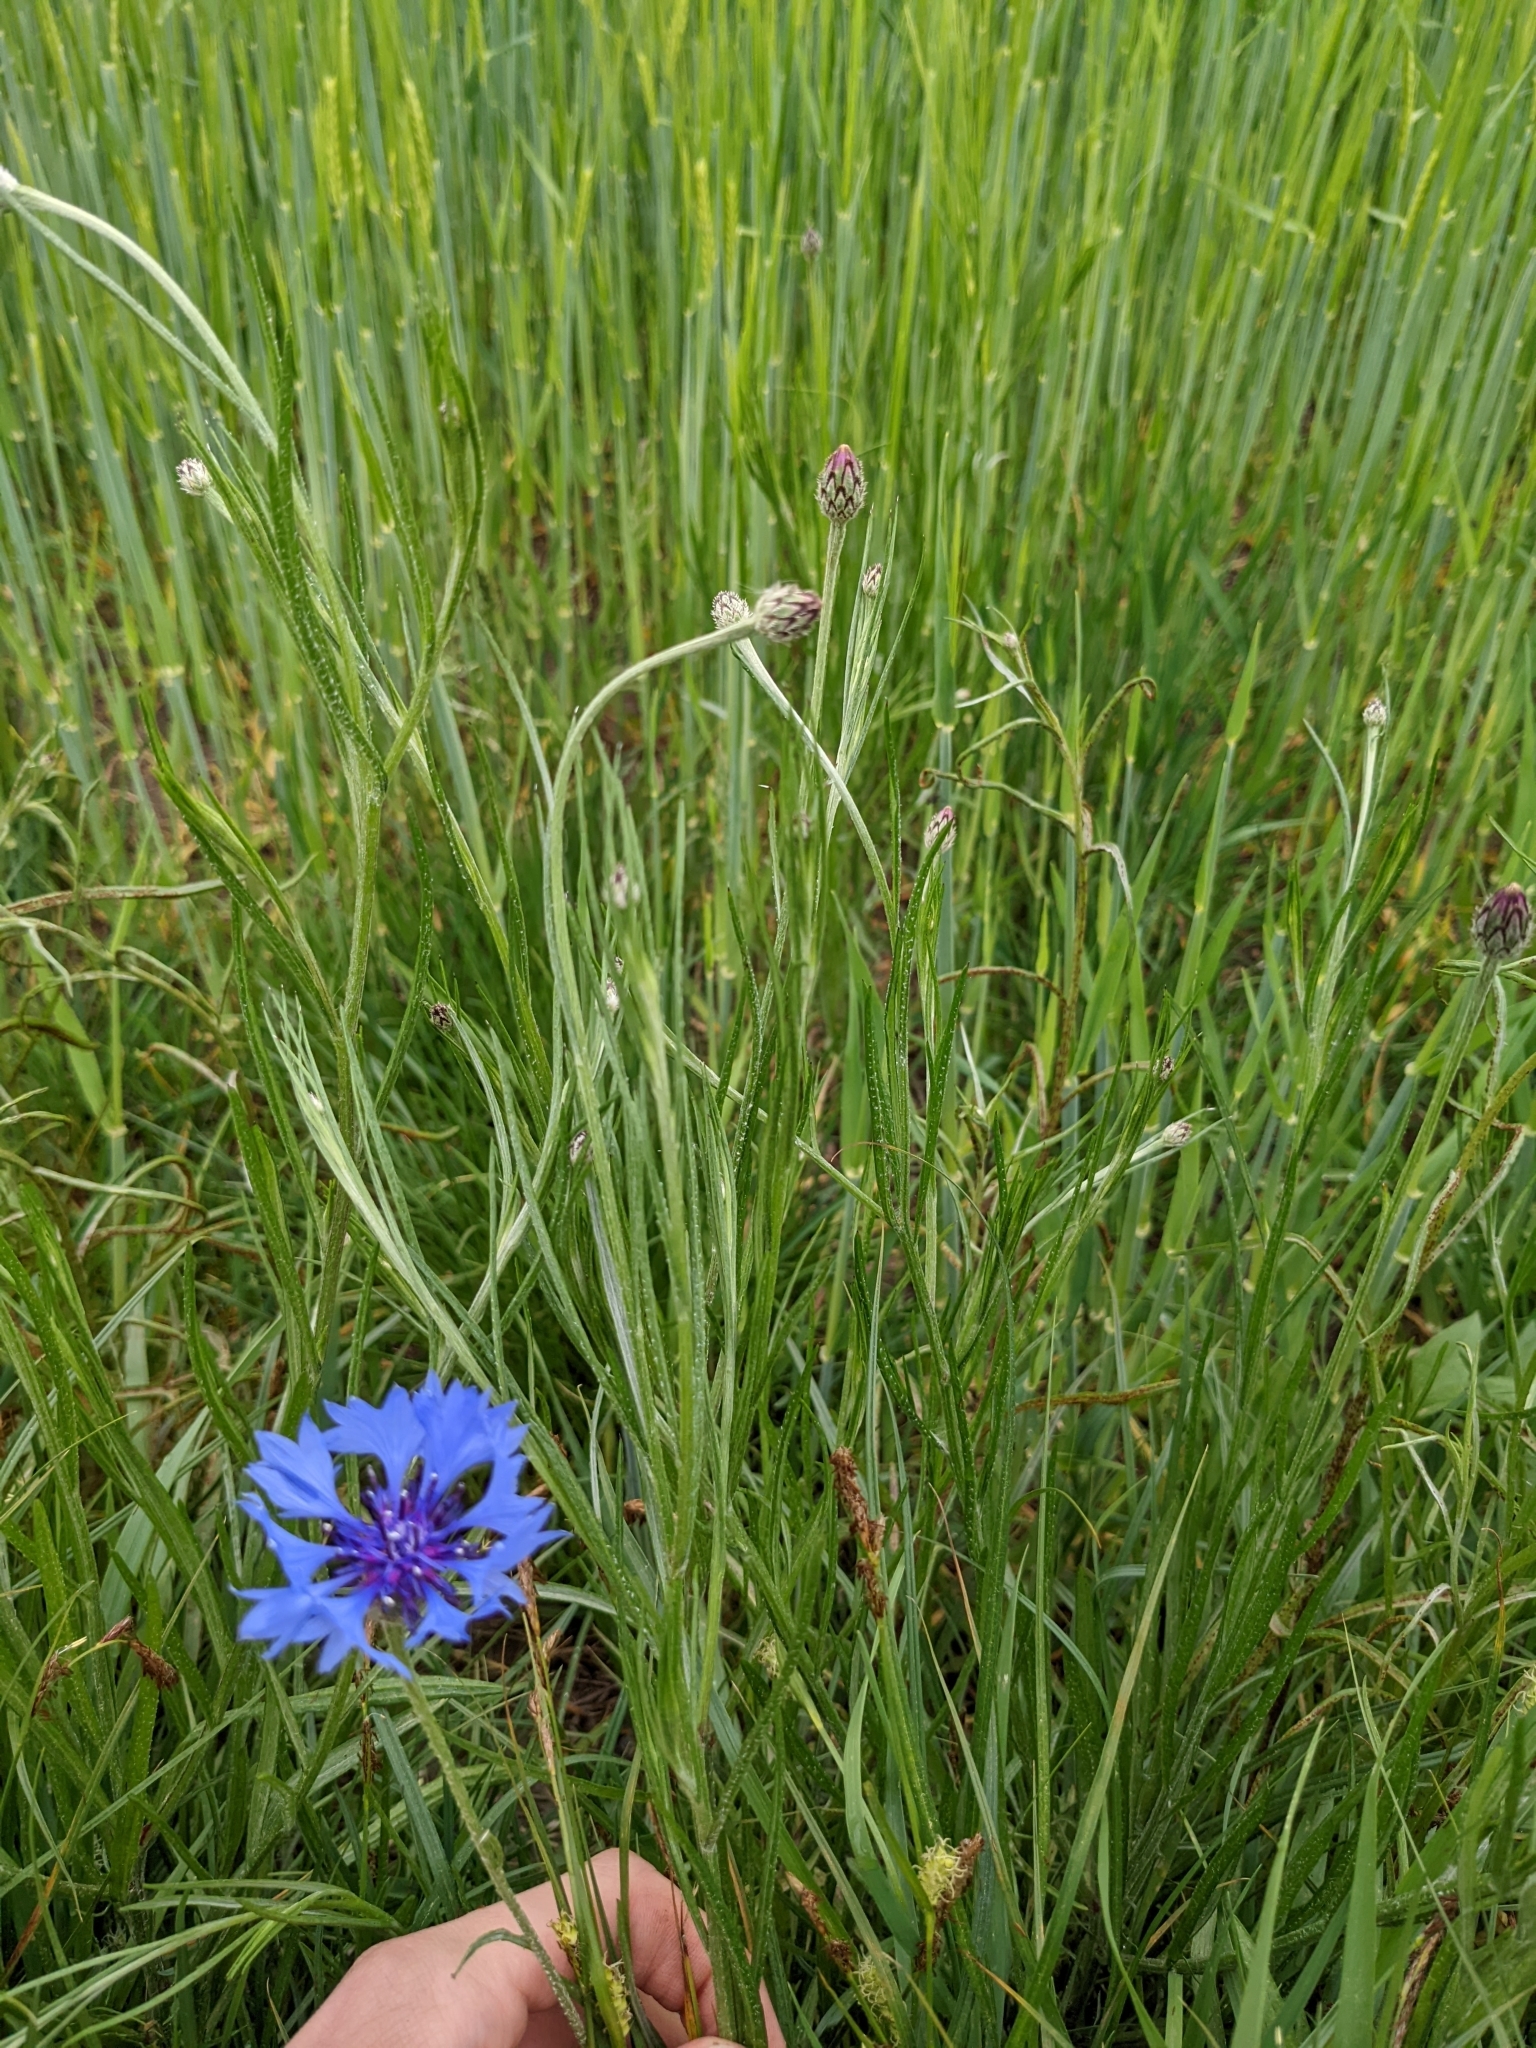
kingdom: Plantae
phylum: Tracheophyta
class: Magnoliopsida
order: Asterales
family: Asteraceae
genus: Centaurea
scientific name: Centaurea cyanus
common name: Cornflower
